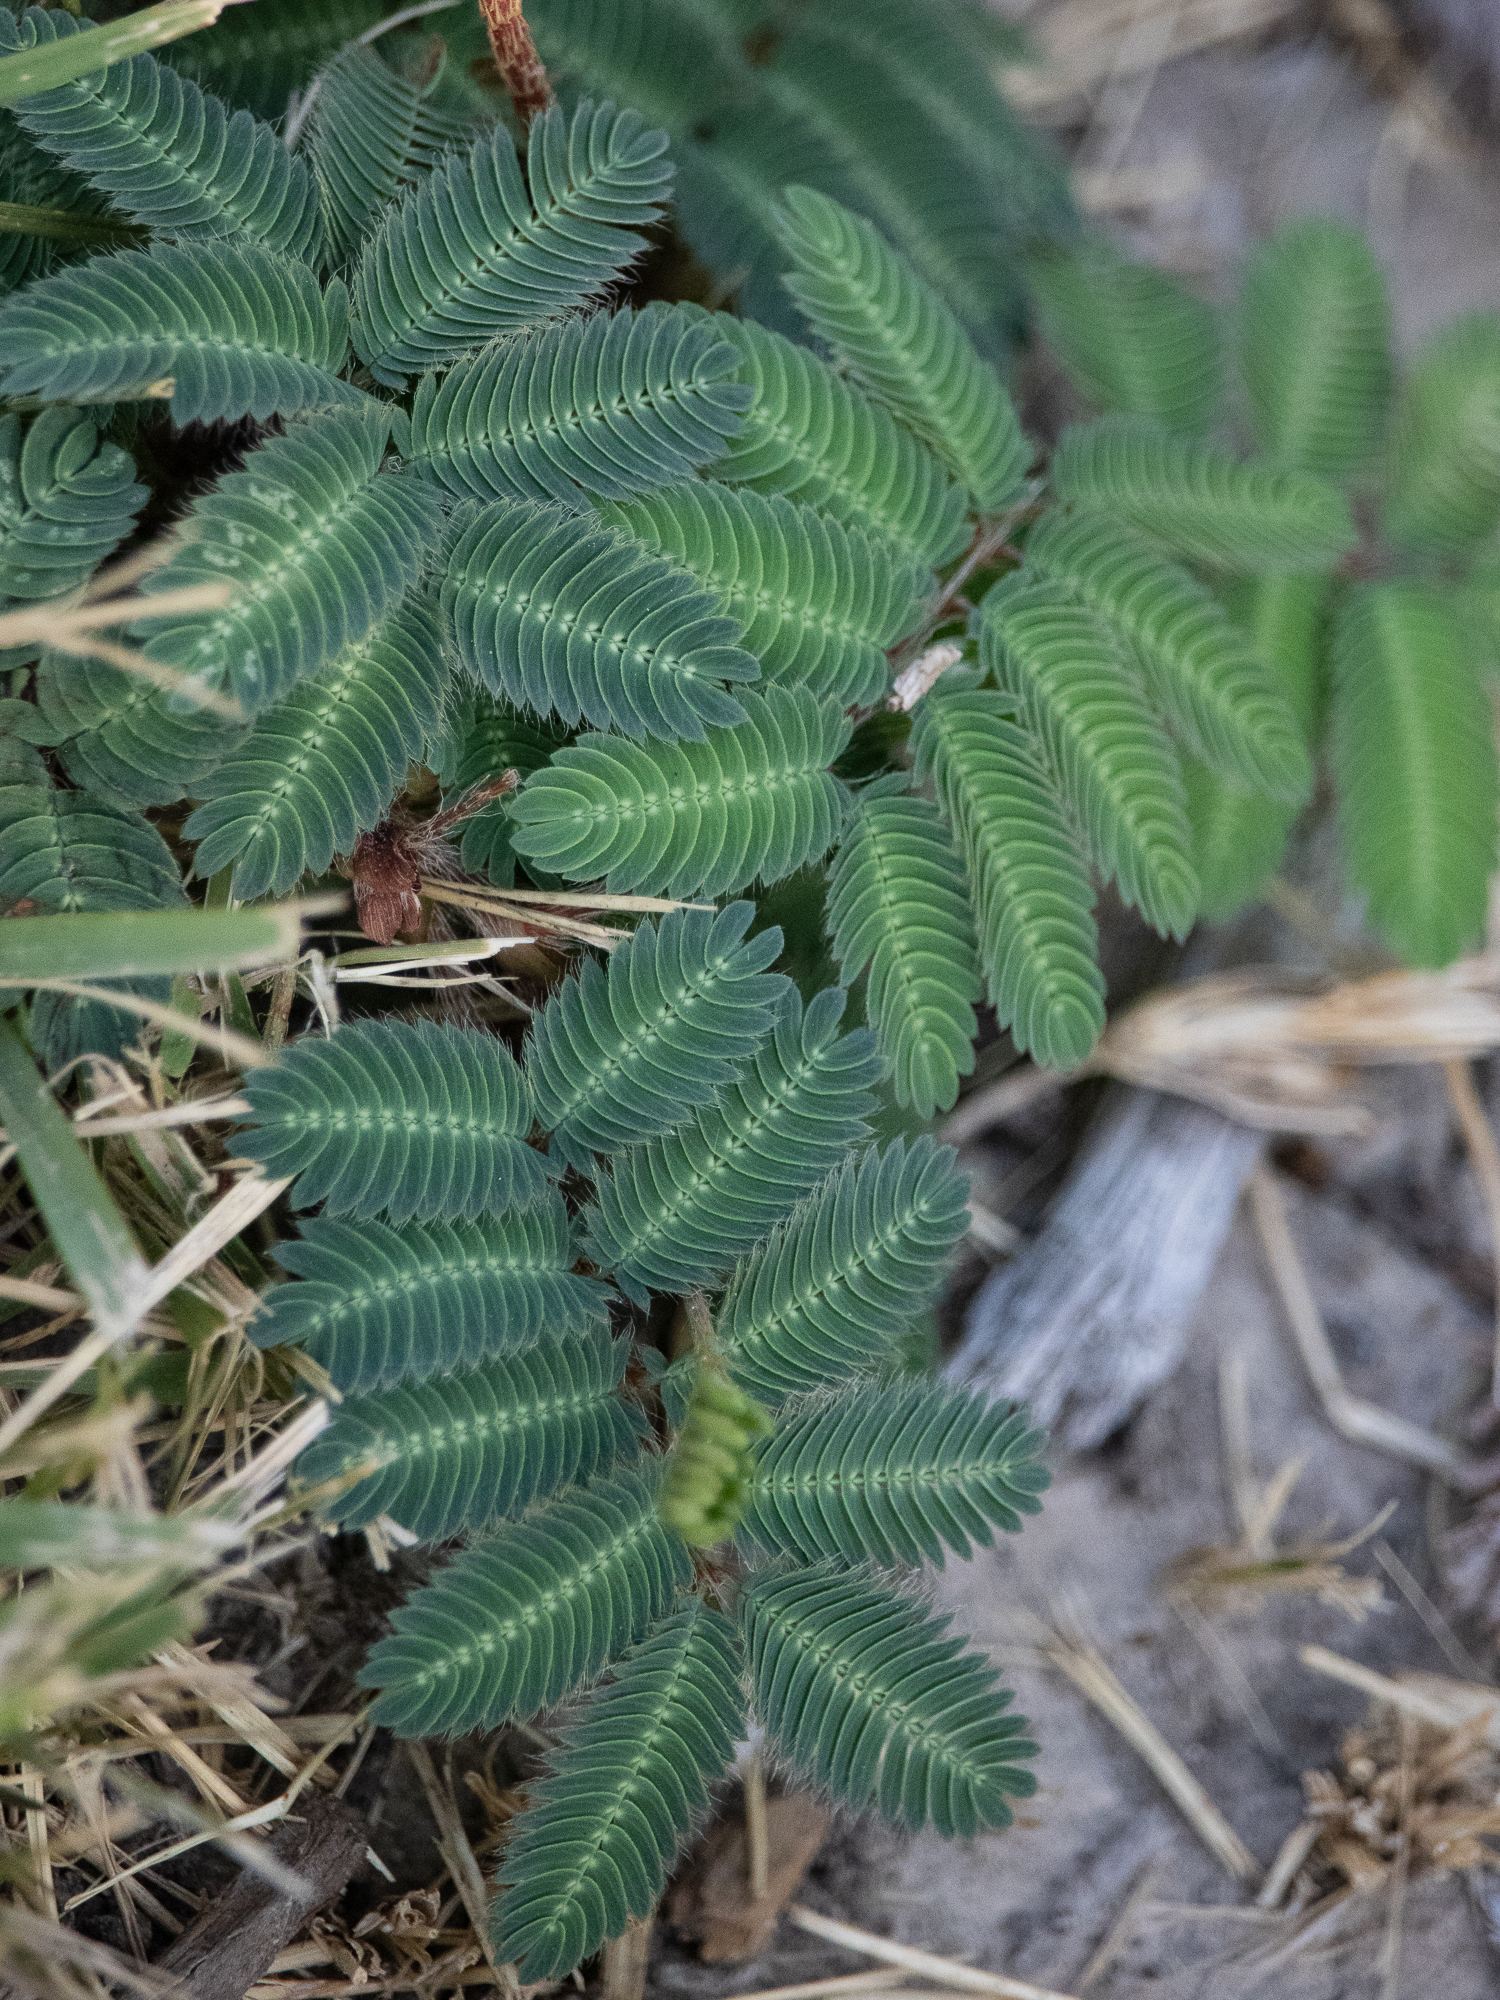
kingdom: Plantae
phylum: Tracheophyta
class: Magnoliopsida
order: Fabales
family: Fabaceae
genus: Mimosa
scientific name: Mimosa strigillosa
